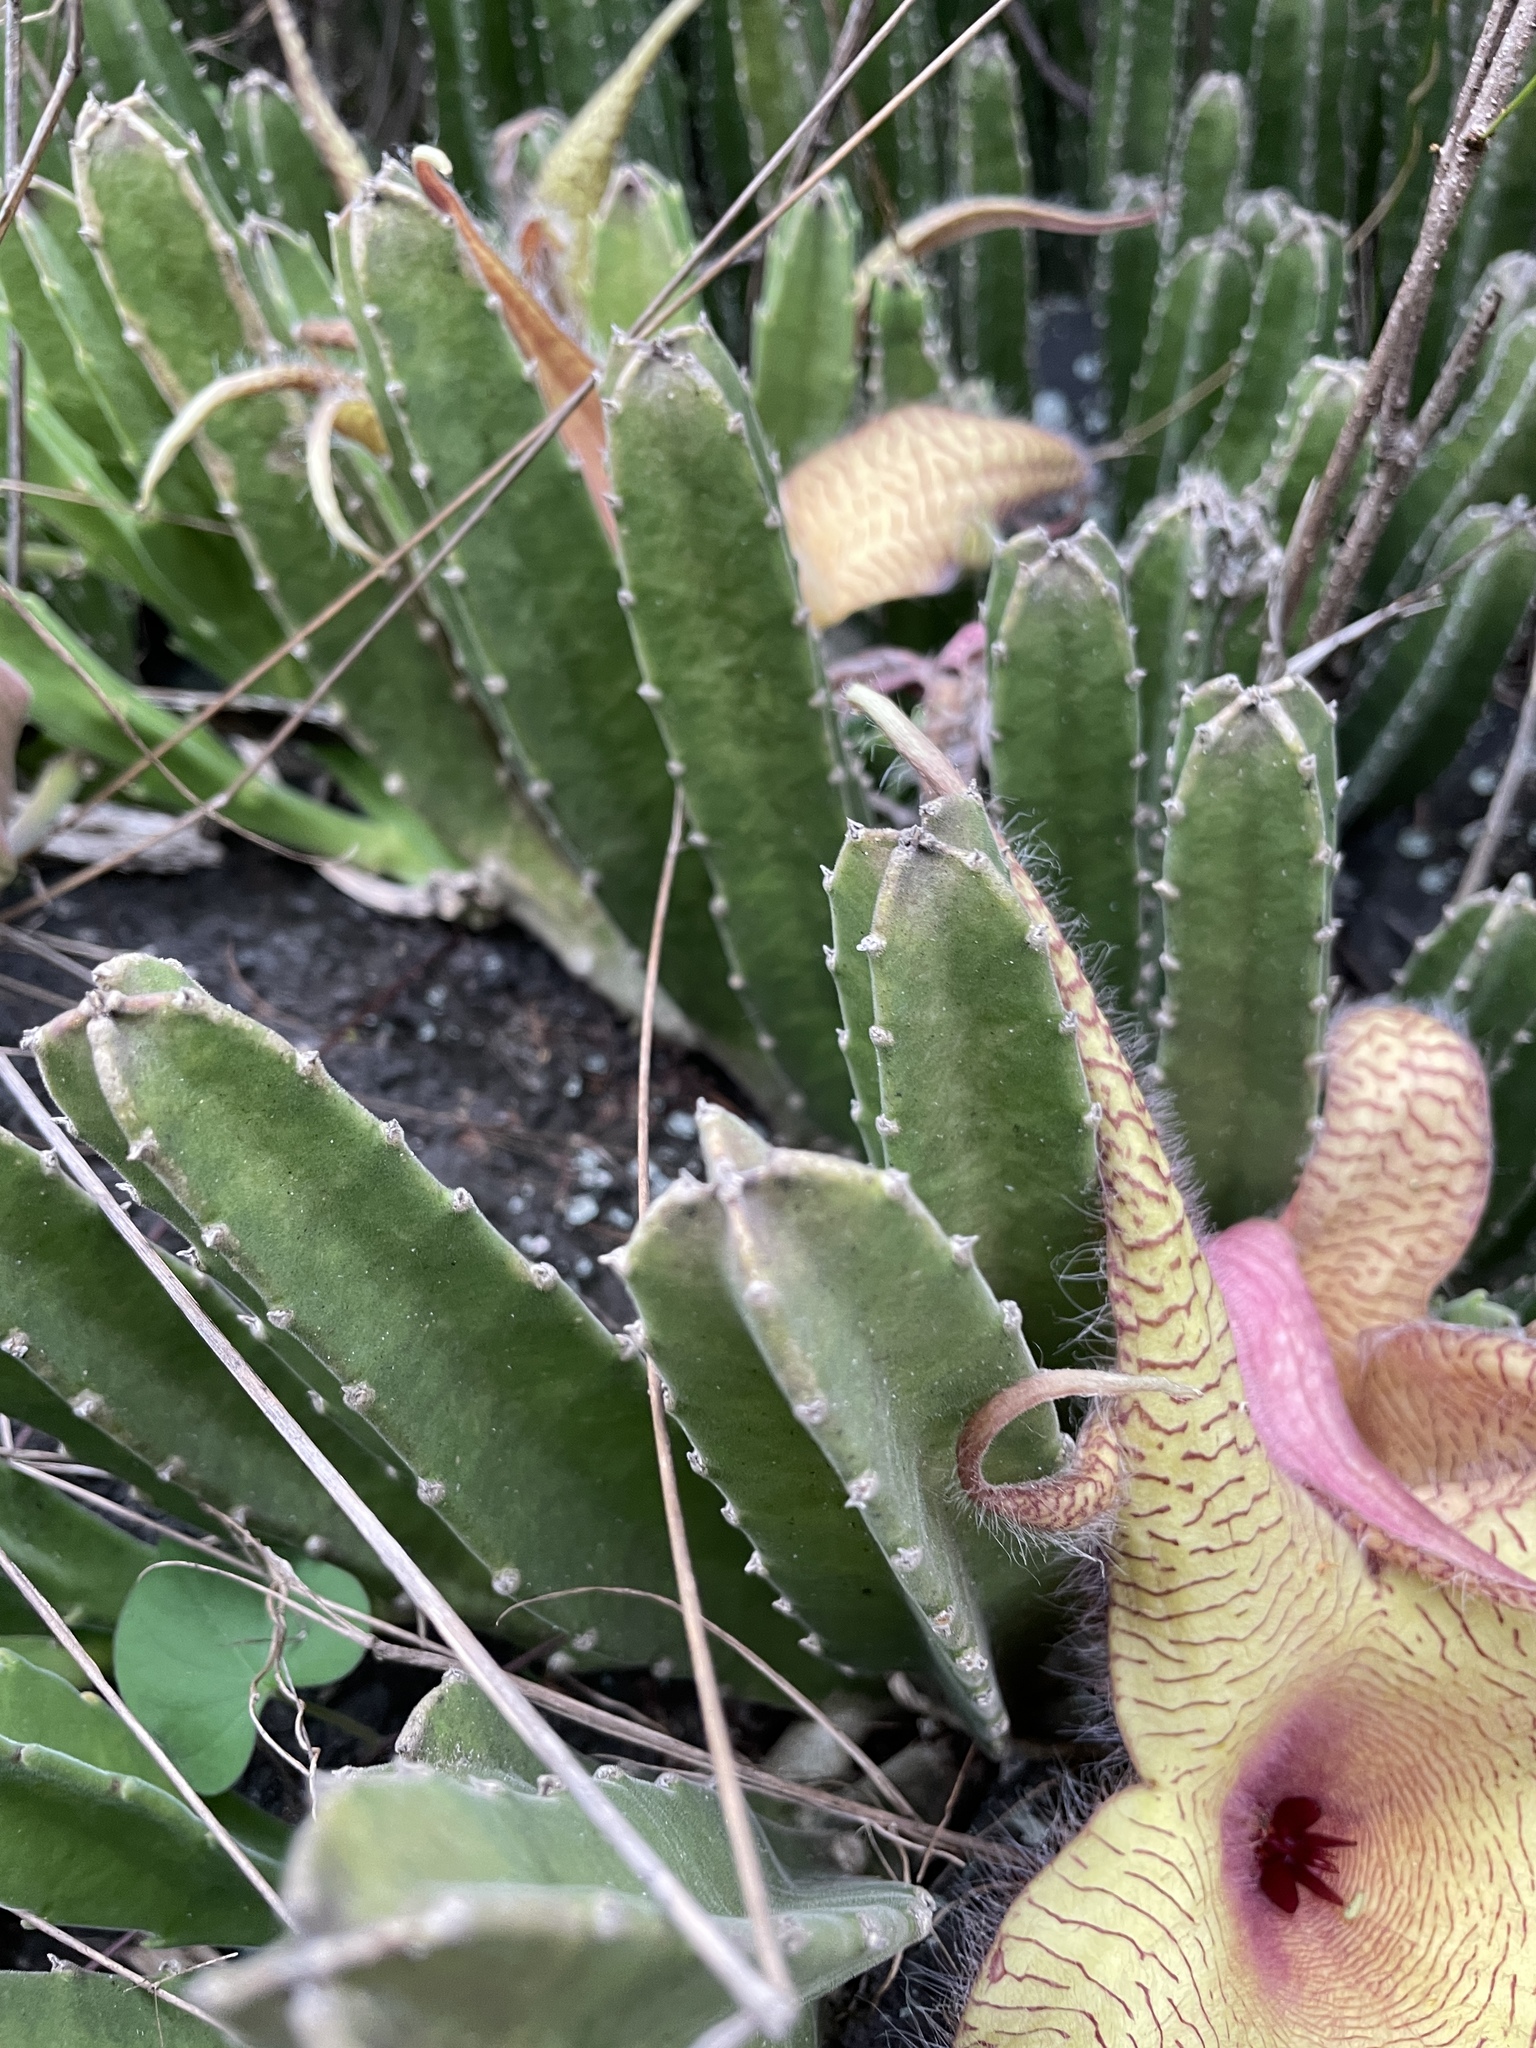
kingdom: Plantae
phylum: Tracheophyta
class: Magnoliopsida
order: Gentianales
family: Apocynaceae
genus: Ceropegia
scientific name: Ceropegia gigantea
